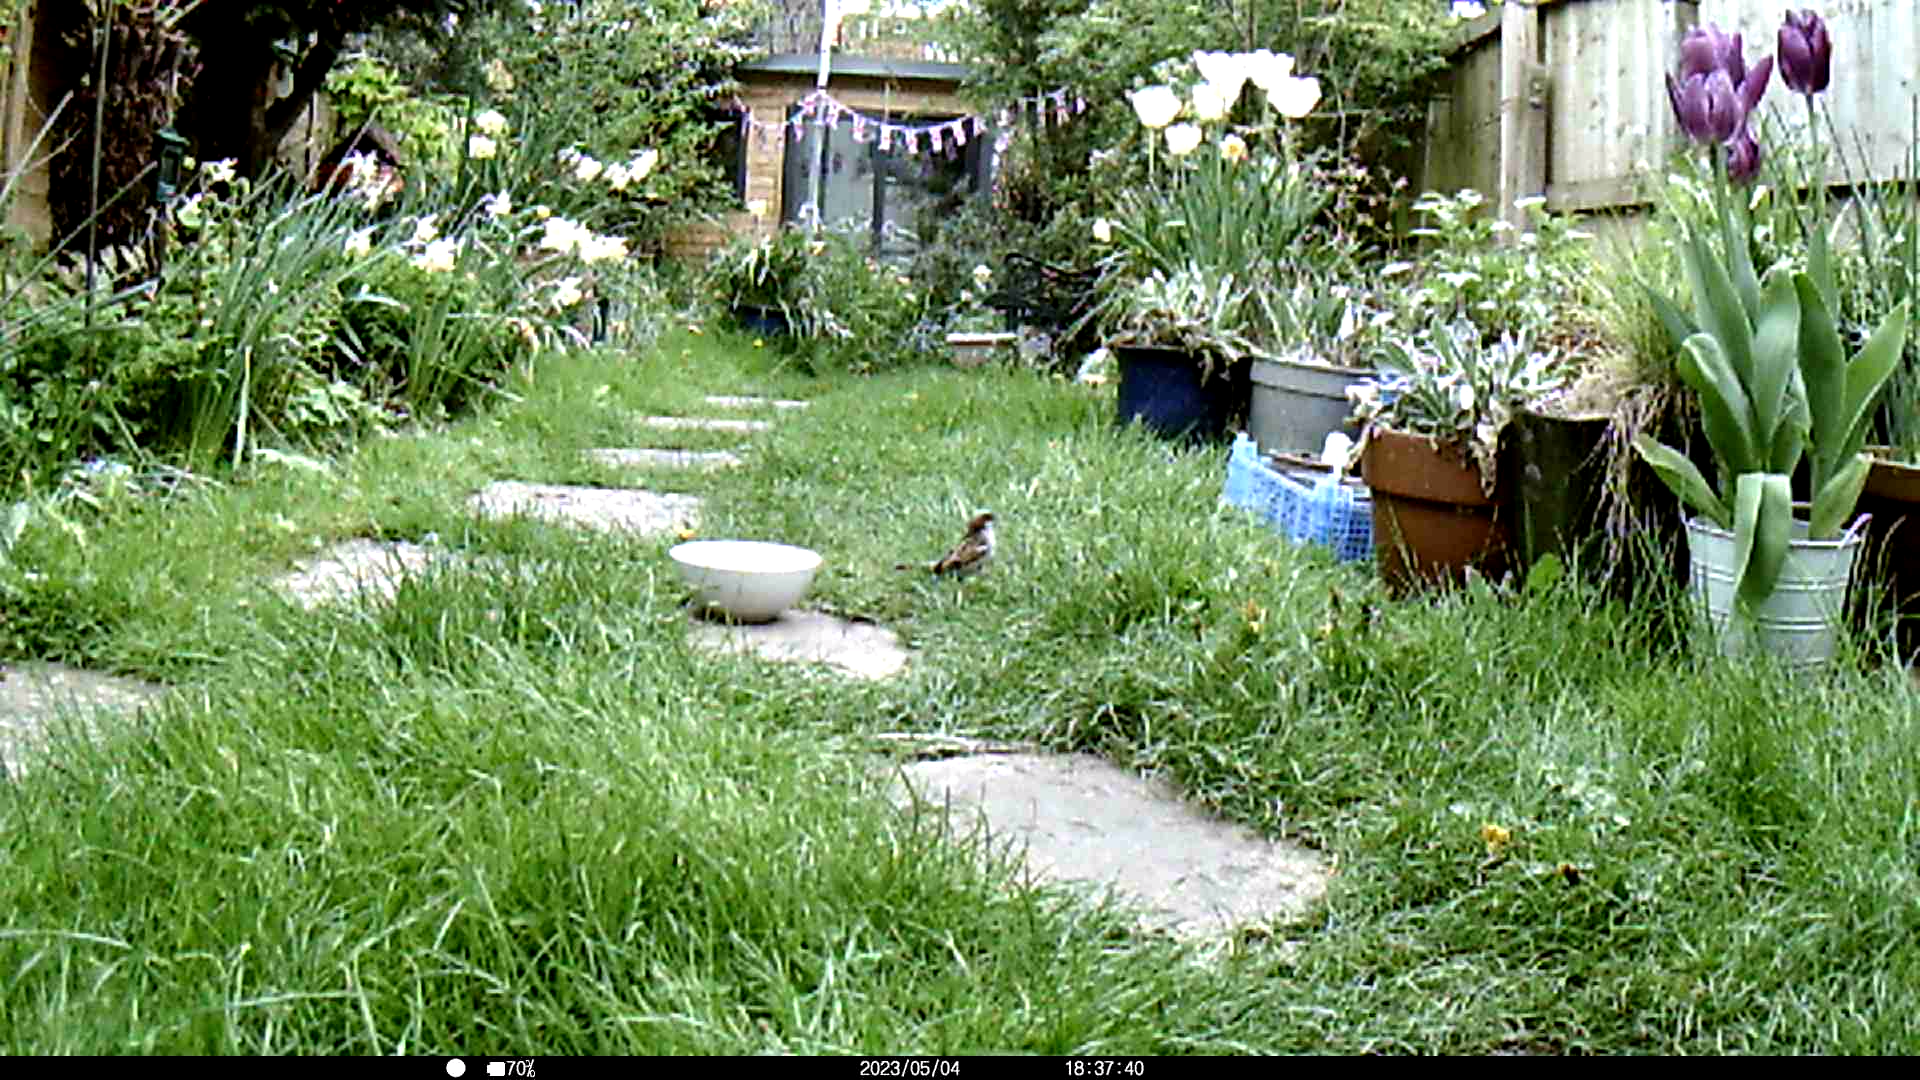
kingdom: Animalia
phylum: Chordata
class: Aves
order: Passeriformes
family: Passeridae
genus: Passer
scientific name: Passer domesticus
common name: House sparrow
